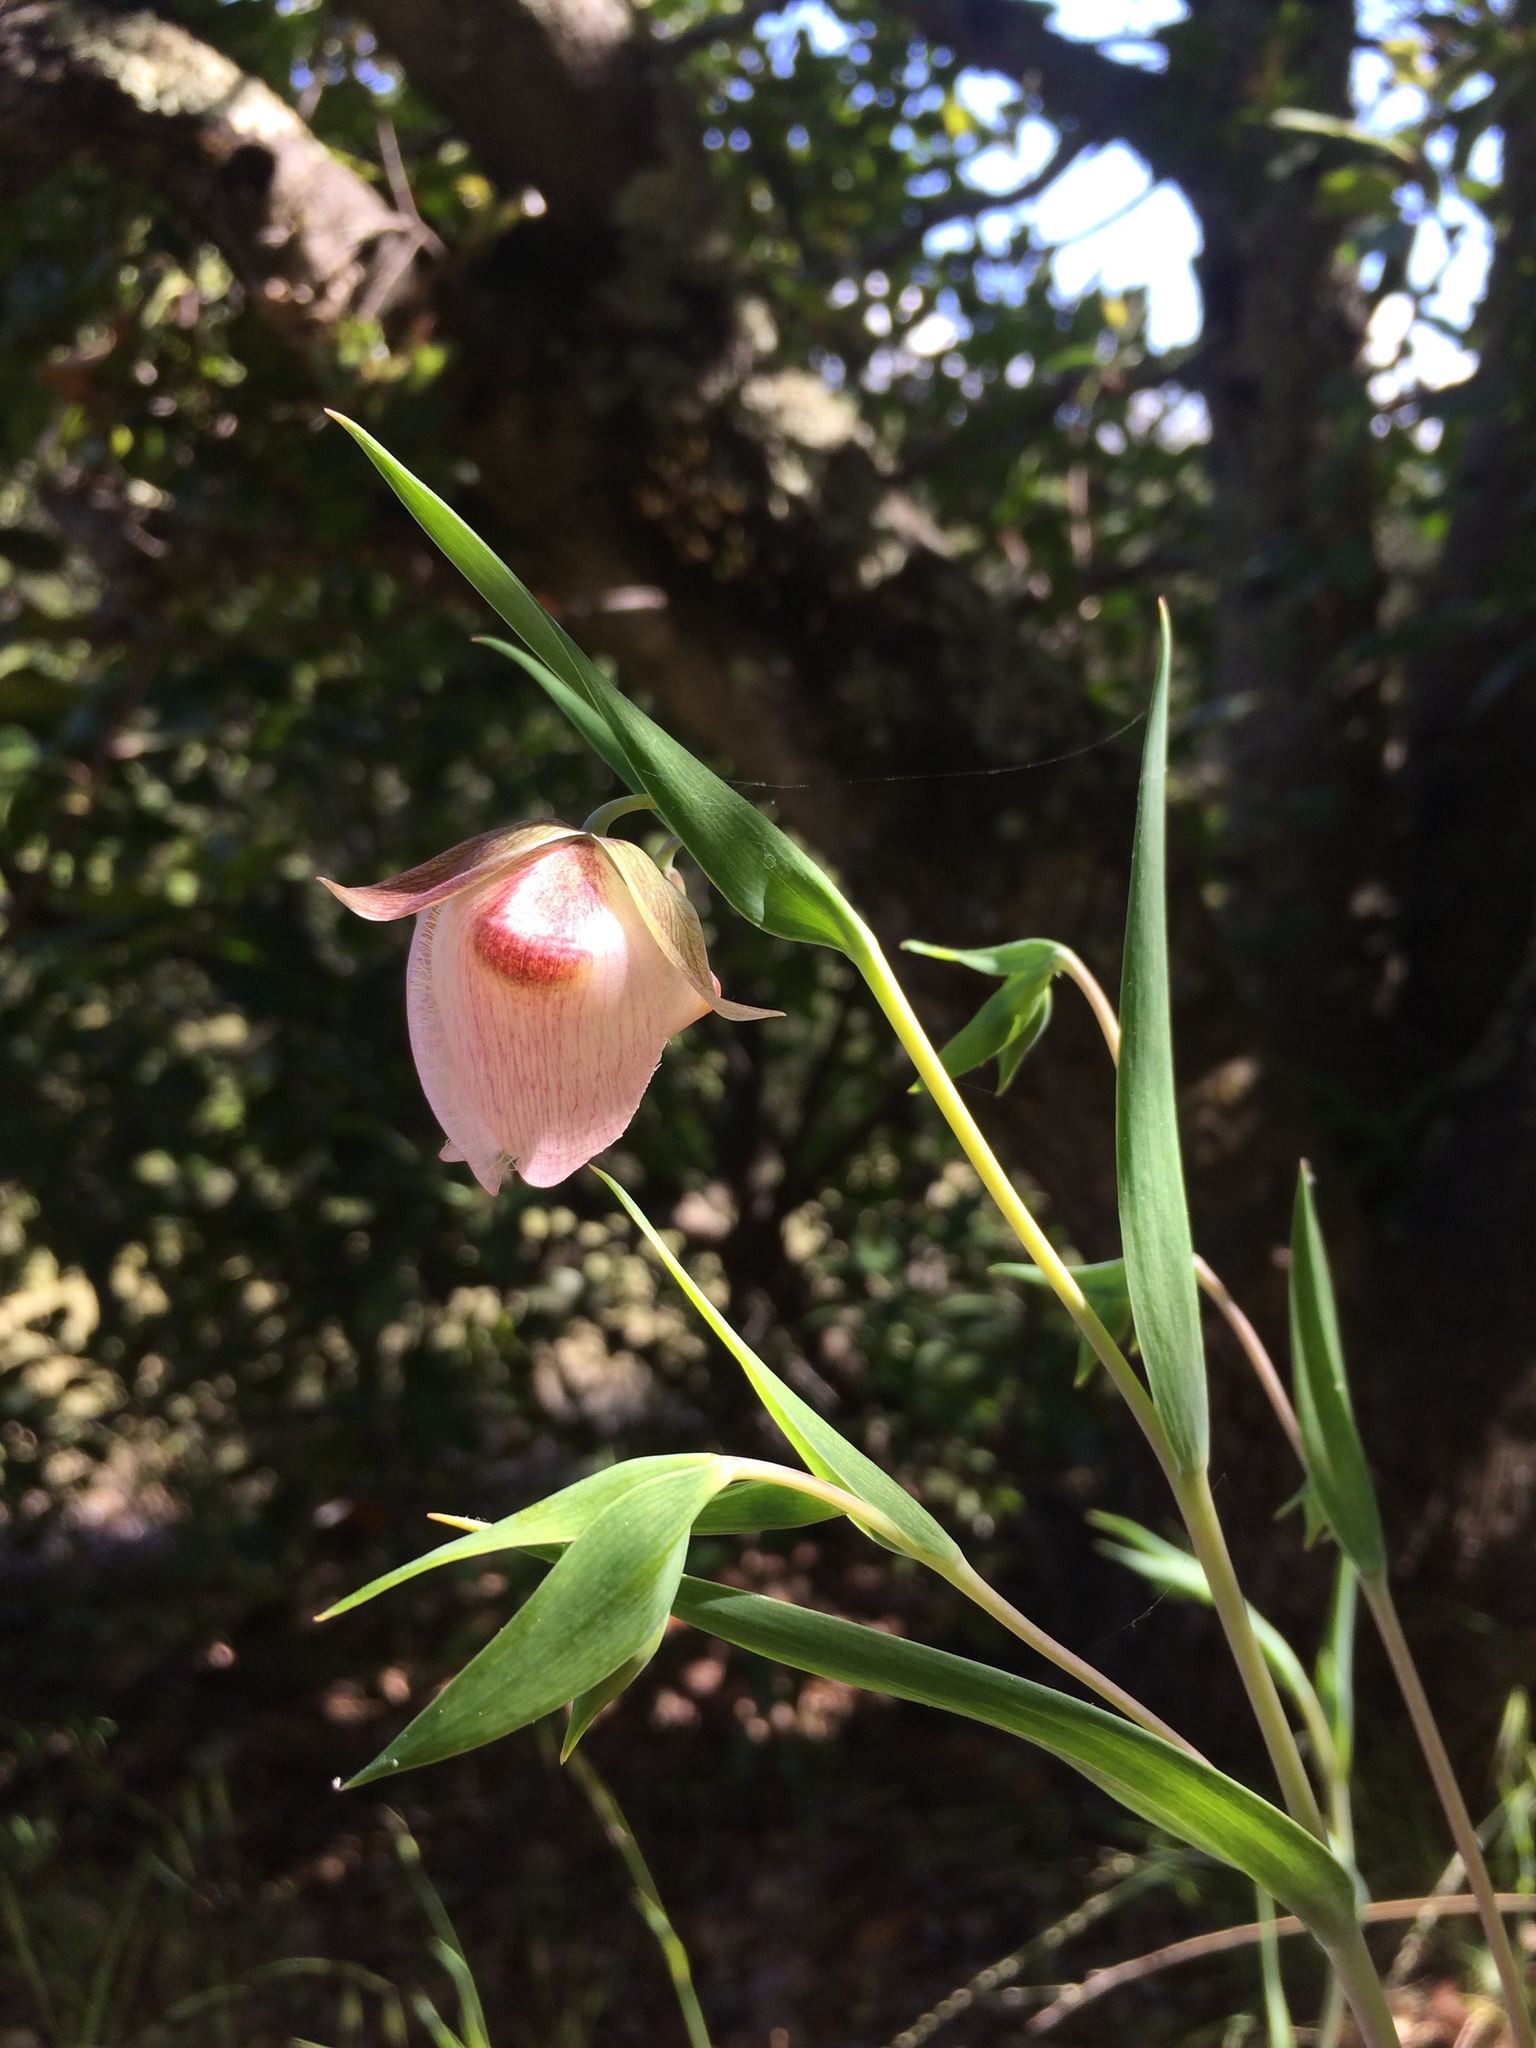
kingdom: Plantae
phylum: Tracheophyta
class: Liliopsida
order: Liliales
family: Liliaceae
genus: Calochortus
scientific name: Calochortus albus
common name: Fairy-lantern
